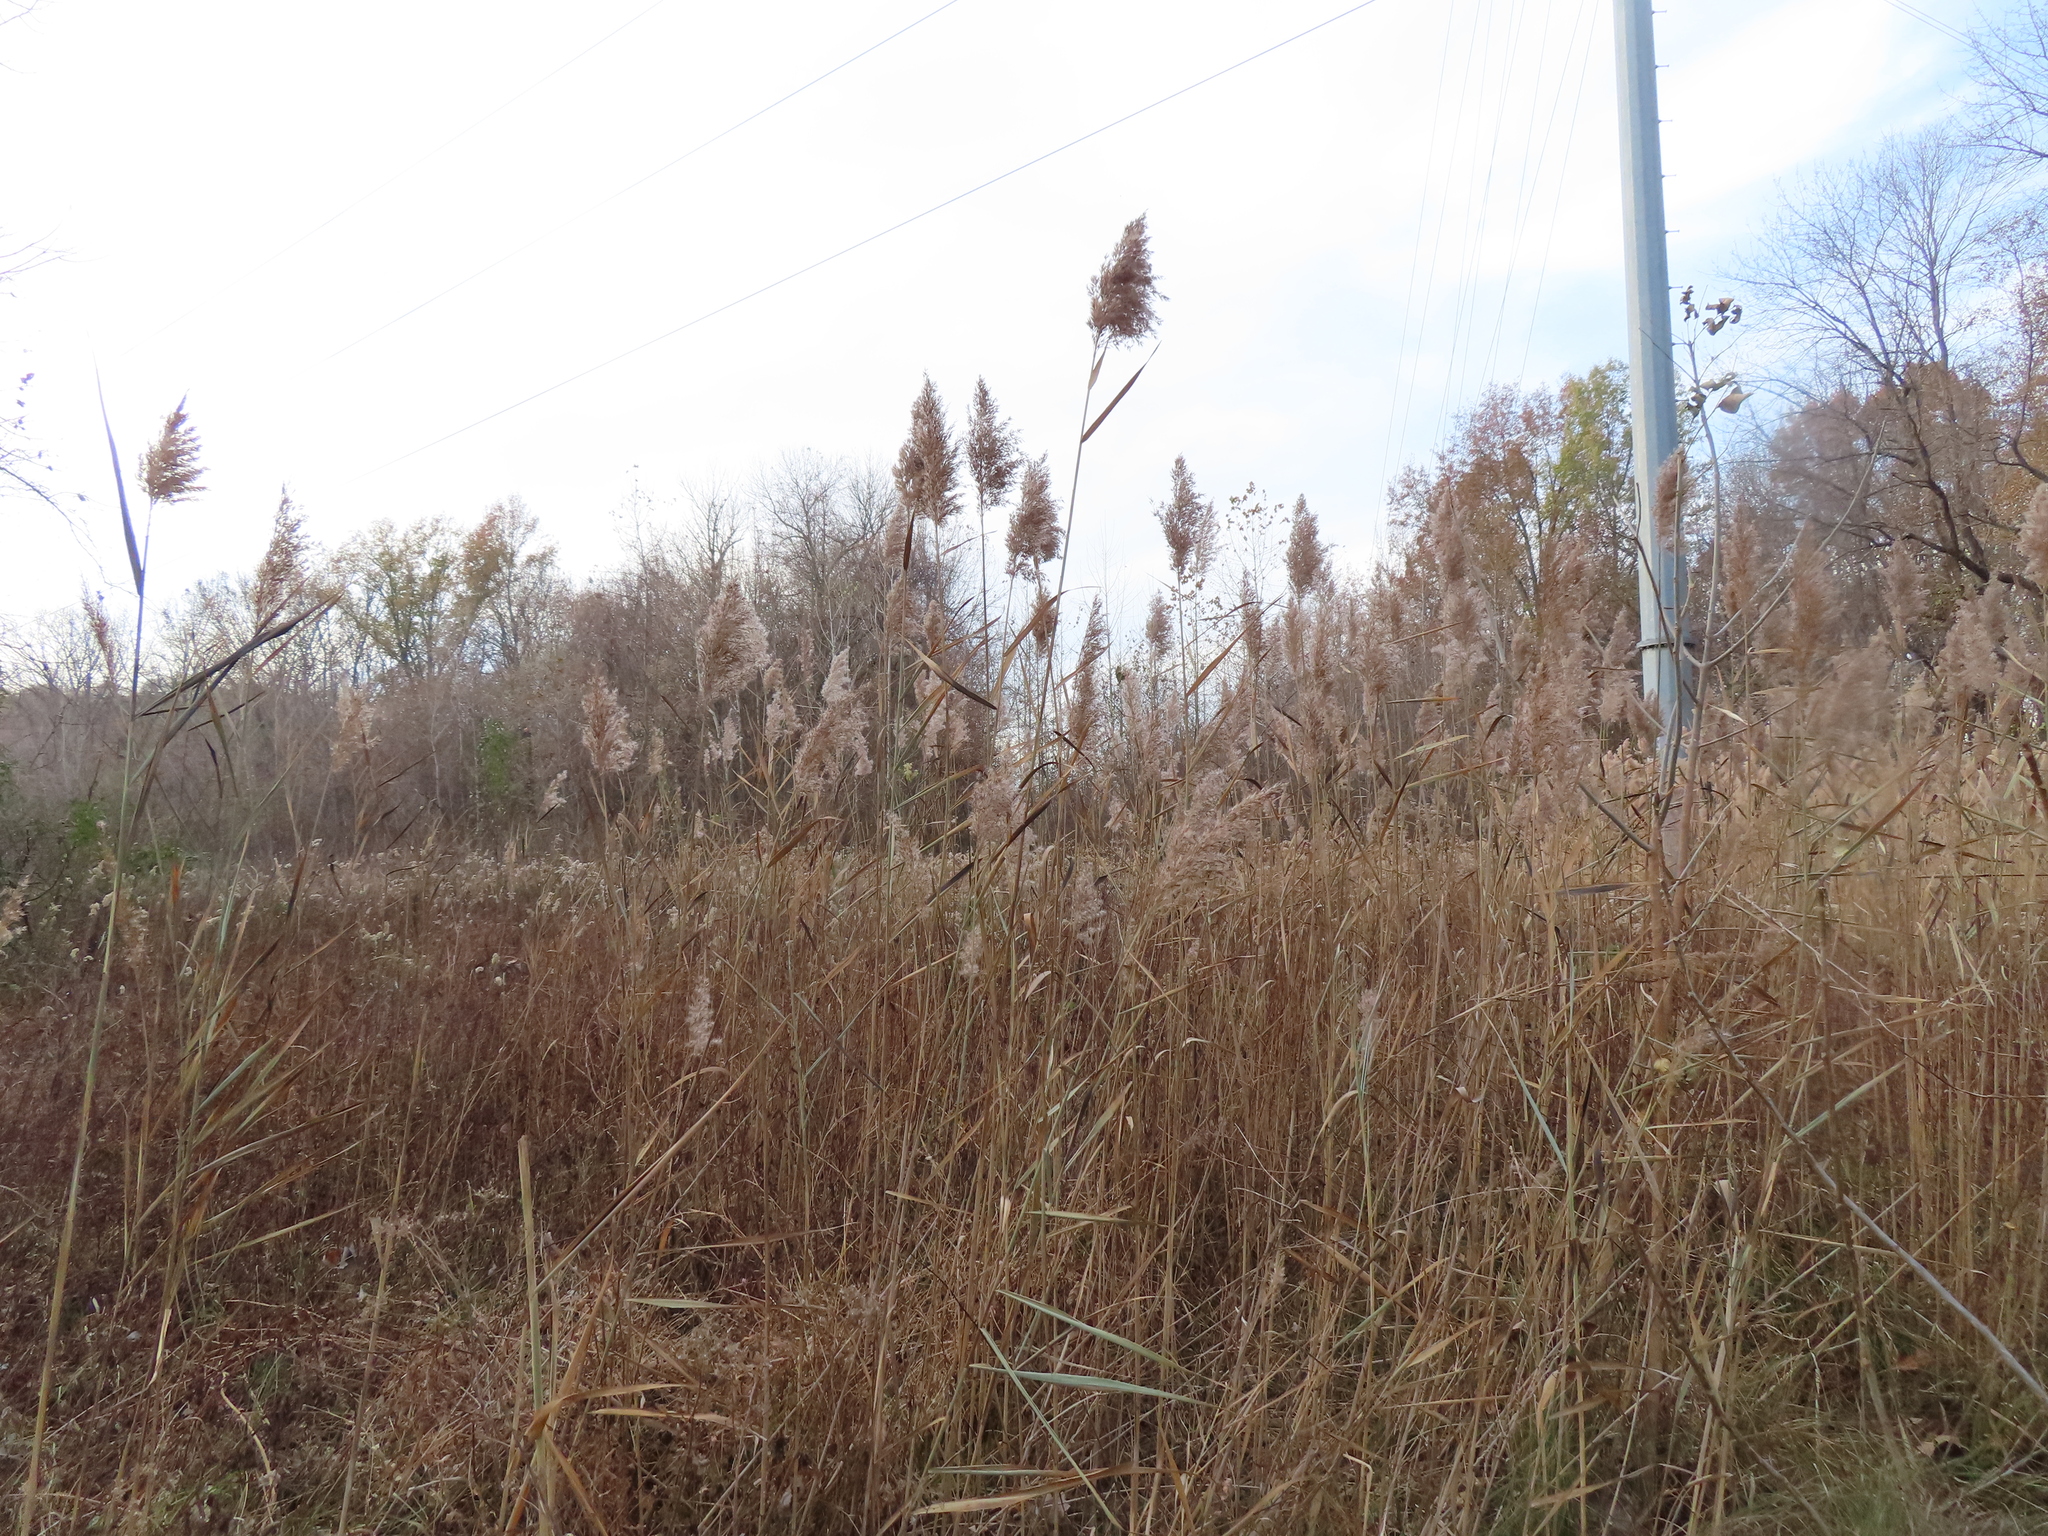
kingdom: Plantae
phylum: Tracheophyta
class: Liliopsida
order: Poales
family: Poaceae
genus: Phragmites
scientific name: Phragmites australis
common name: Common reed
